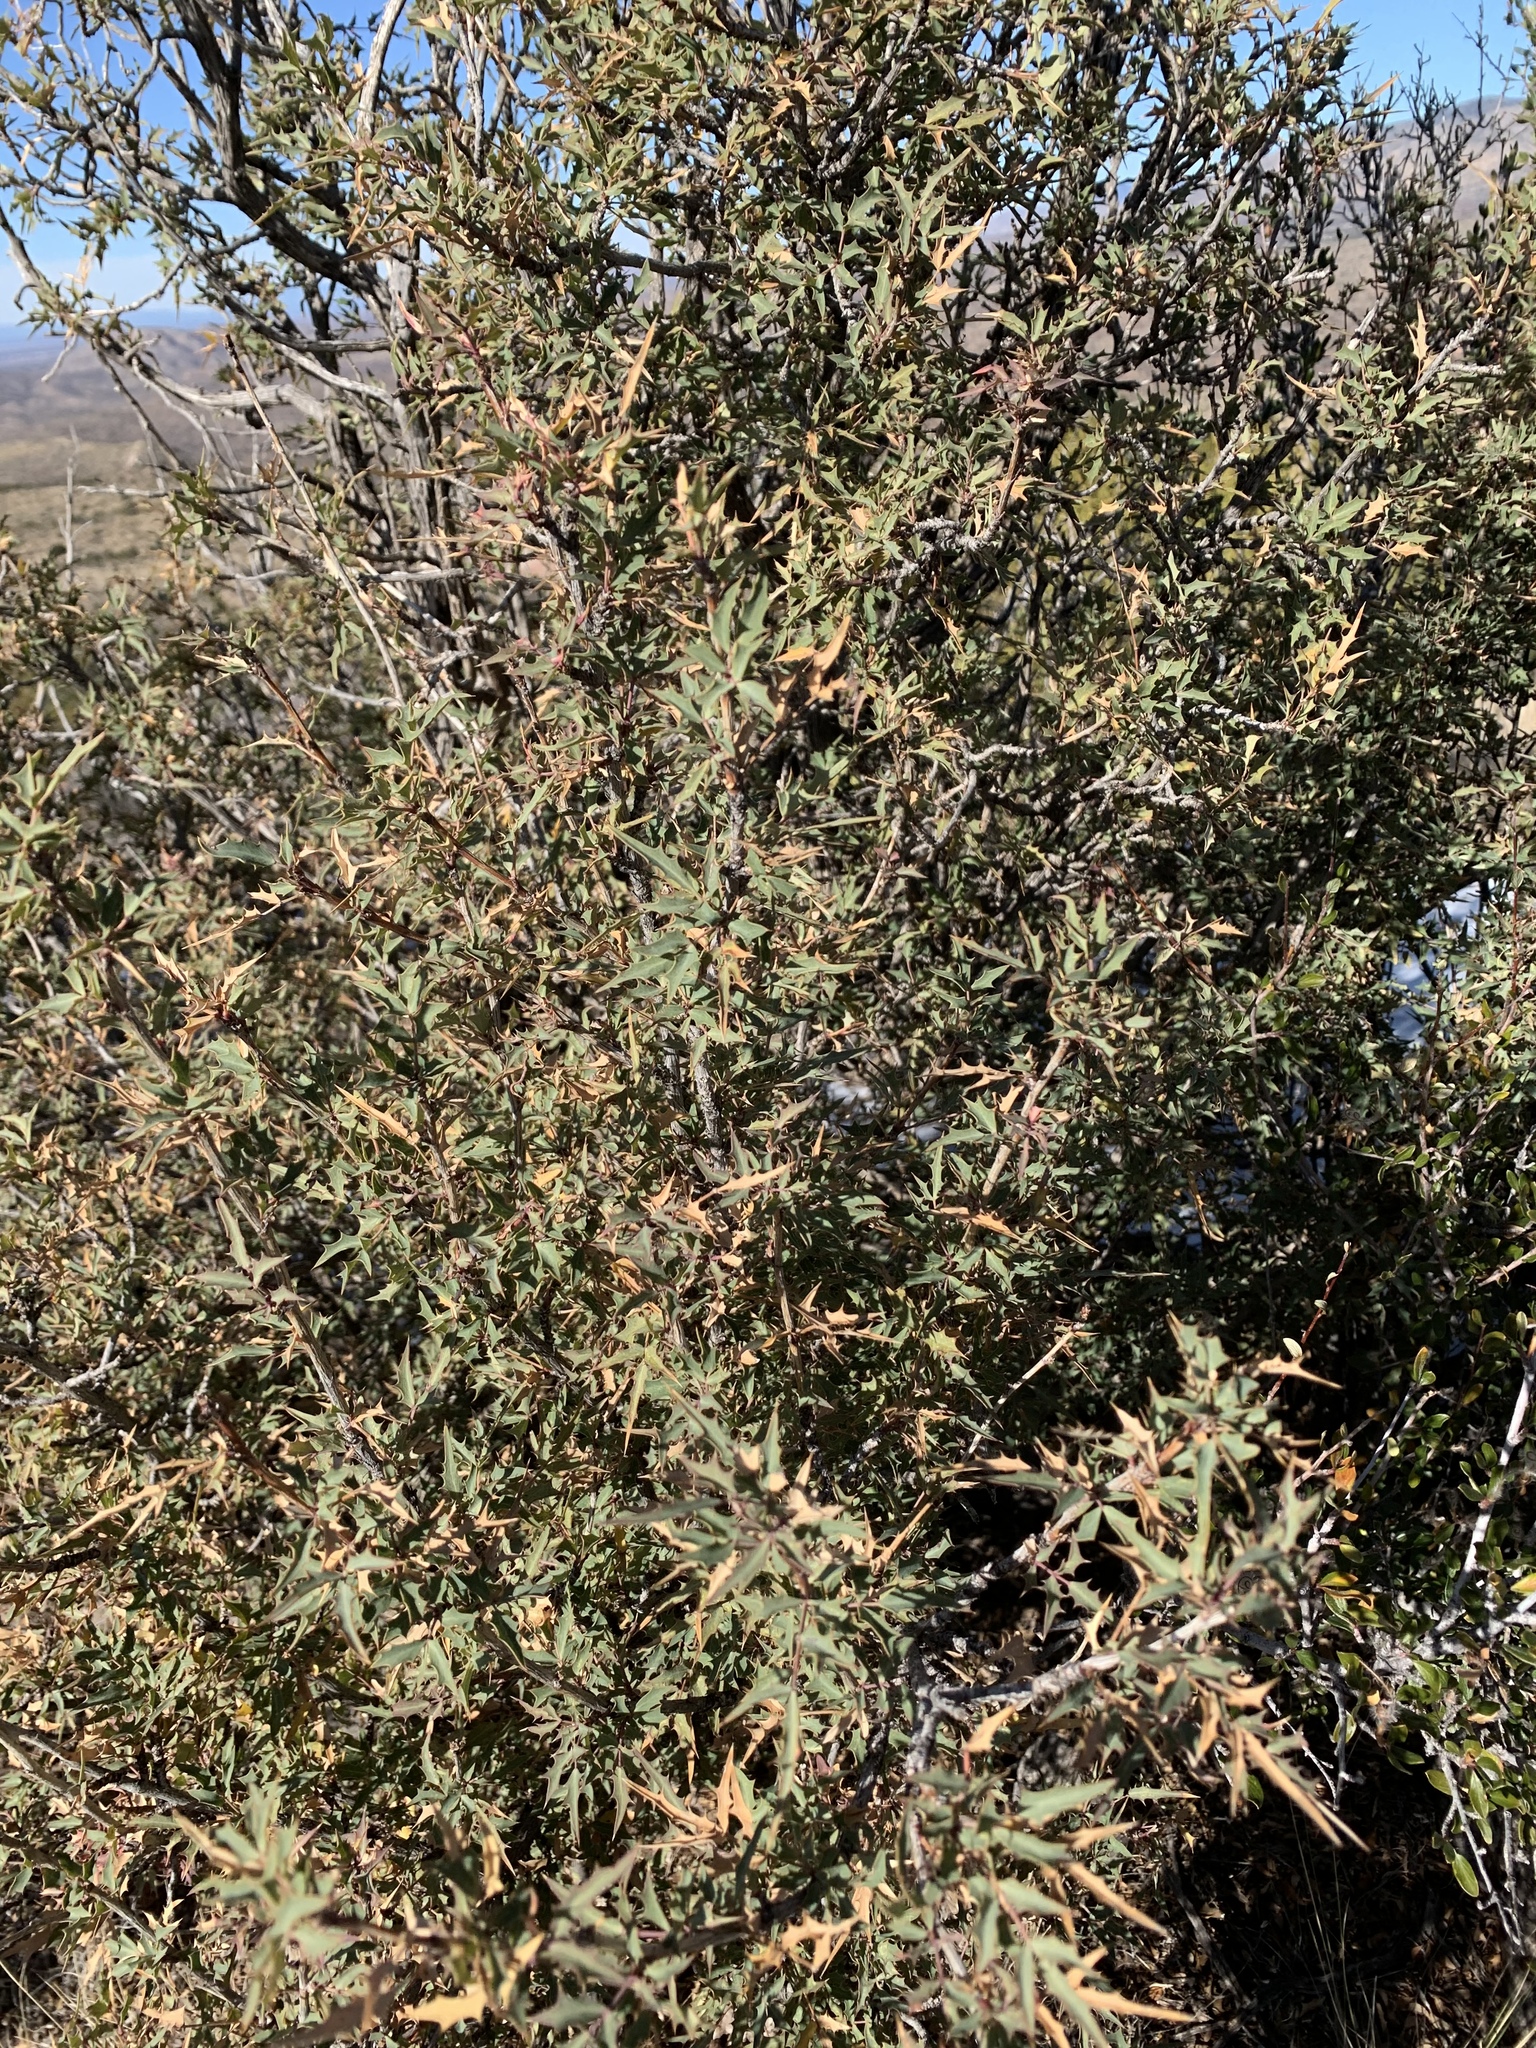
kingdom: Plantae
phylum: Tracheophyta
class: Magnoliopsida
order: Ranunculales
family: Berberidaceae
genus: Alloberberis
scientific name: Alloberberis haematocarpa
